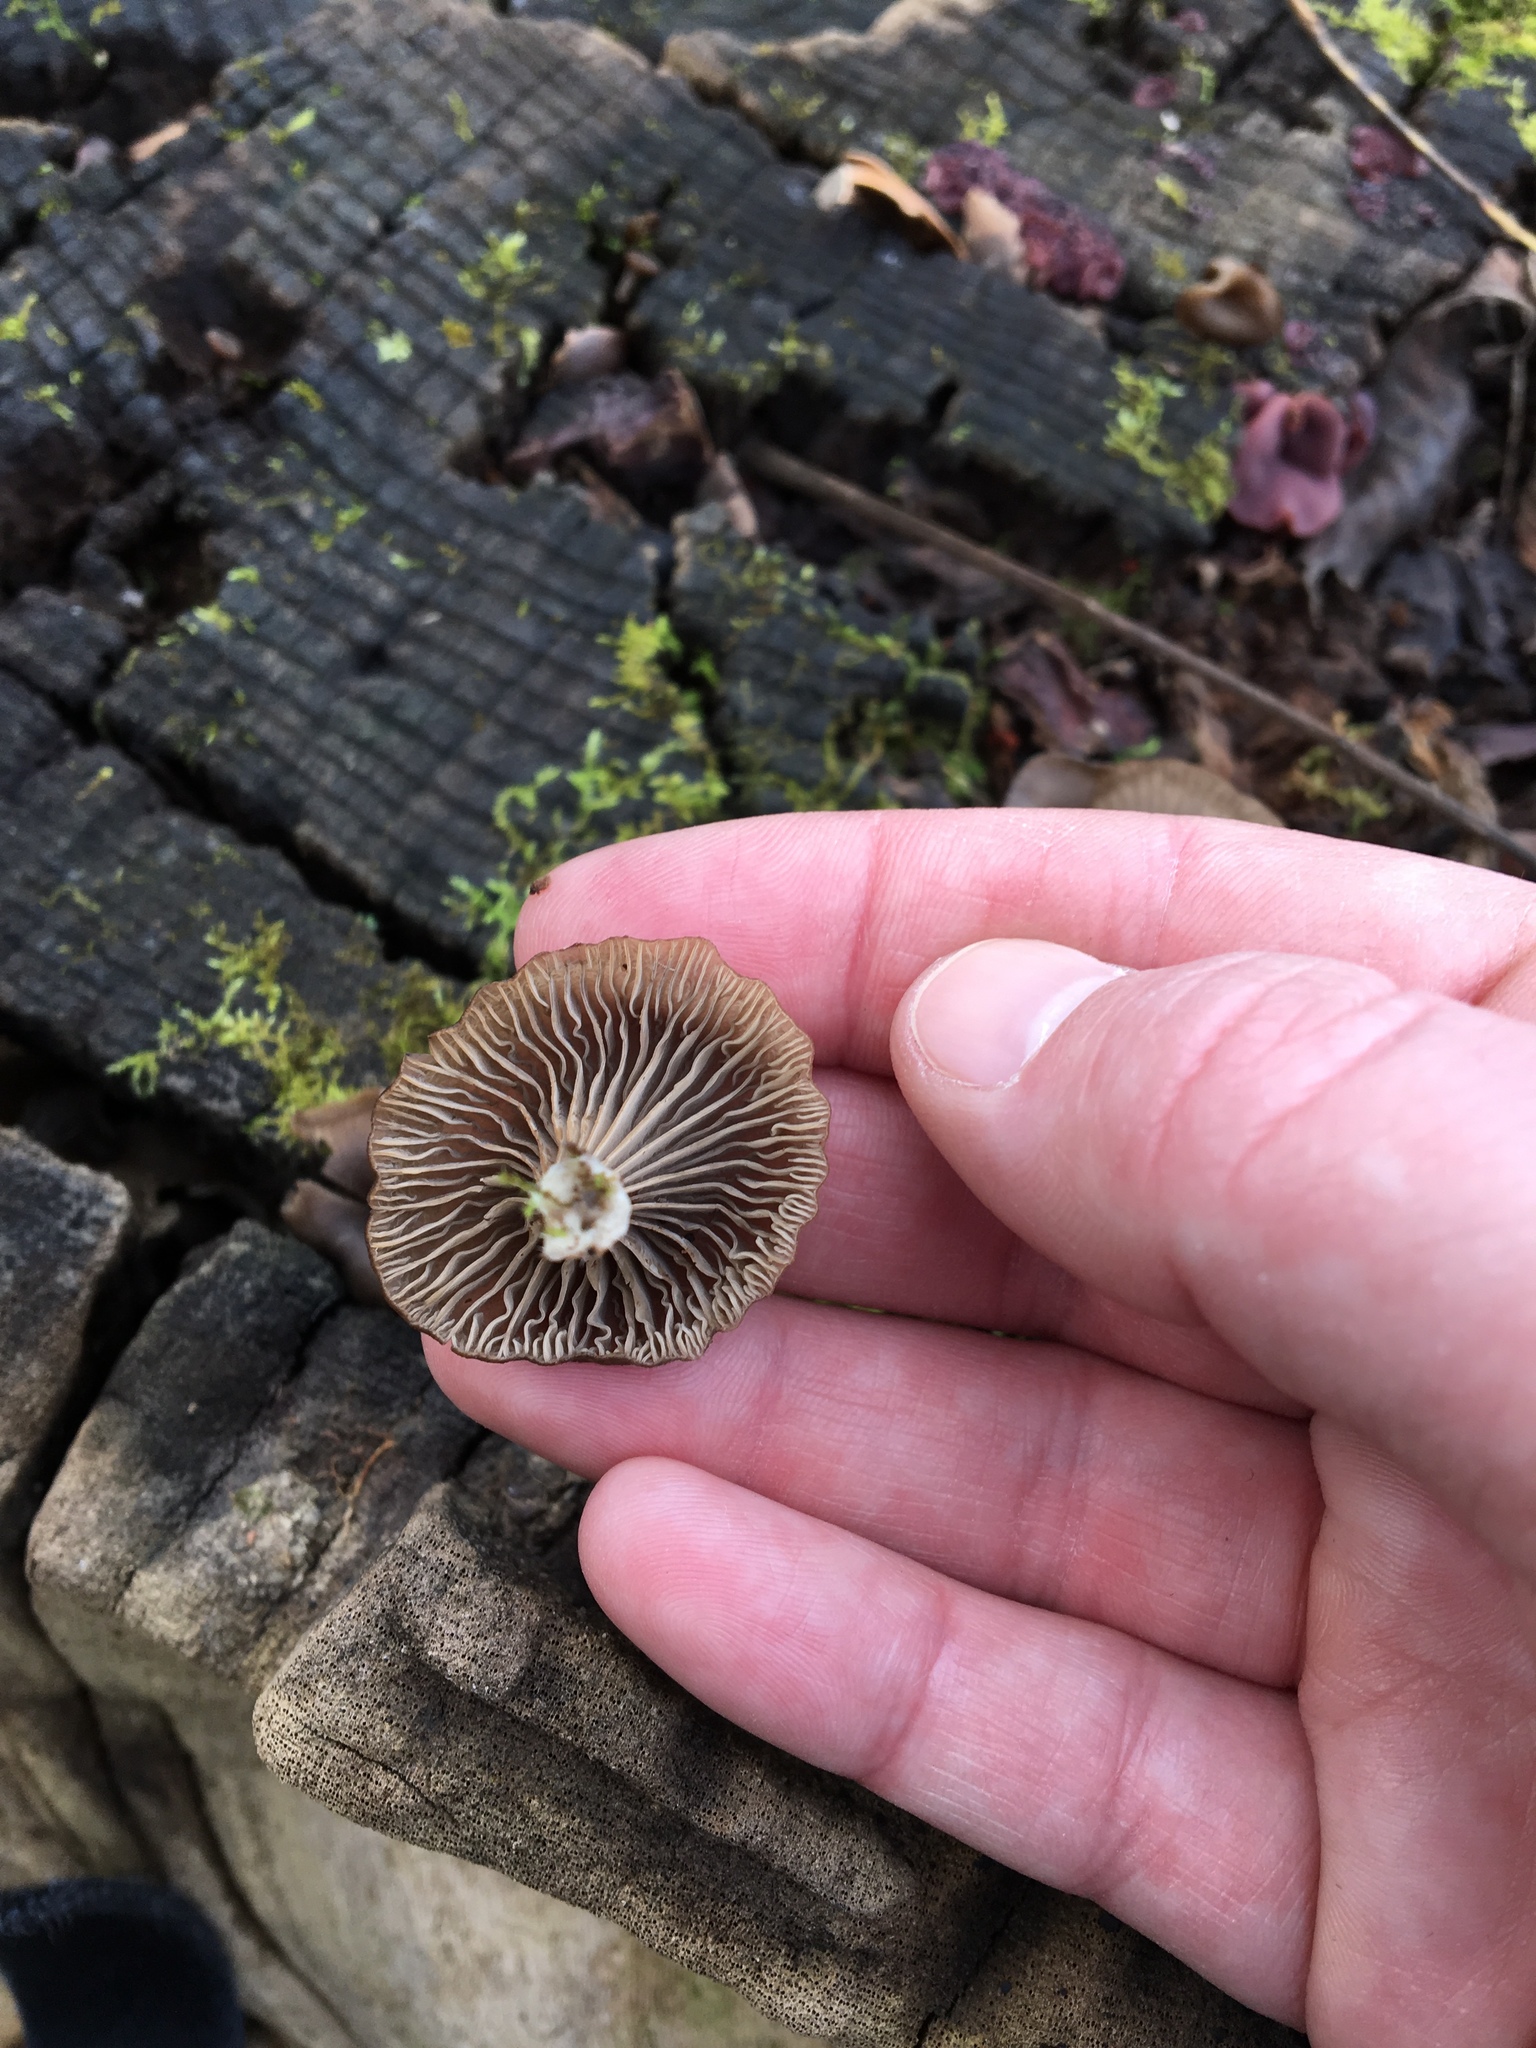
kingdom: Fungi
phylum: Basidiomycota
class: Agaricomycetes
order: Agaricales
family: Hygrophoraceae
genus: Arrhenia
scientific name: Arrhenia epichysium
